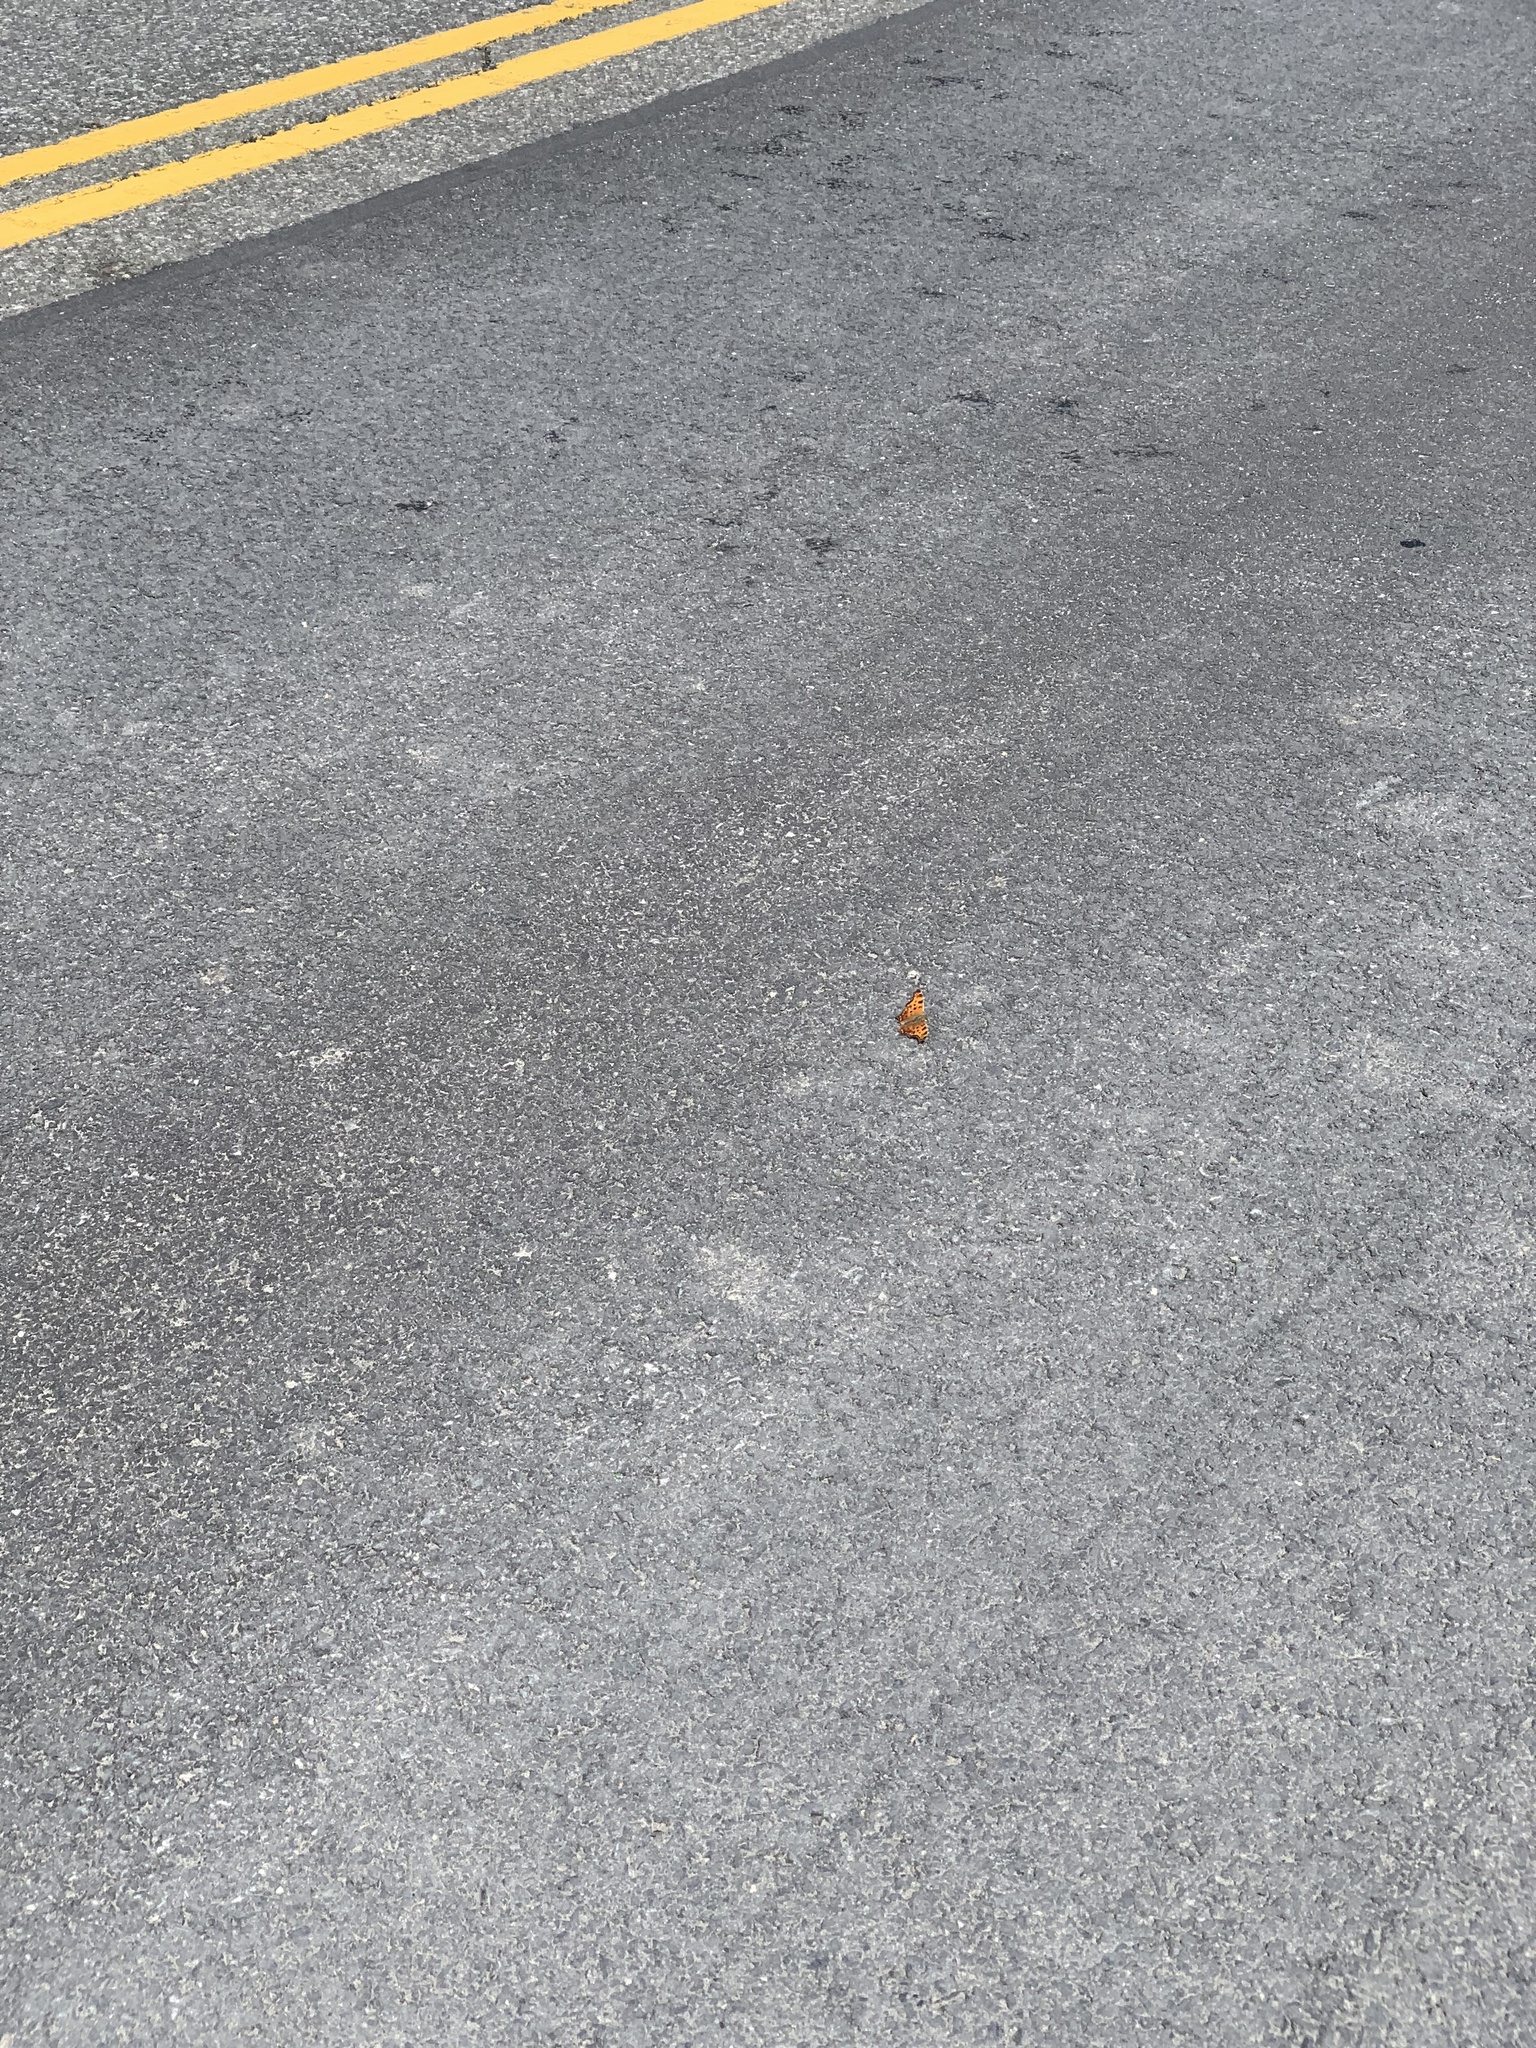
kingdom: Animalia
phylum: Arthropoda
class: Insecta
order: Lepidoptera
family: Nymphalidae
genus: Polygonia
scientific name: Polygonia comma
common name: Eastern comma
